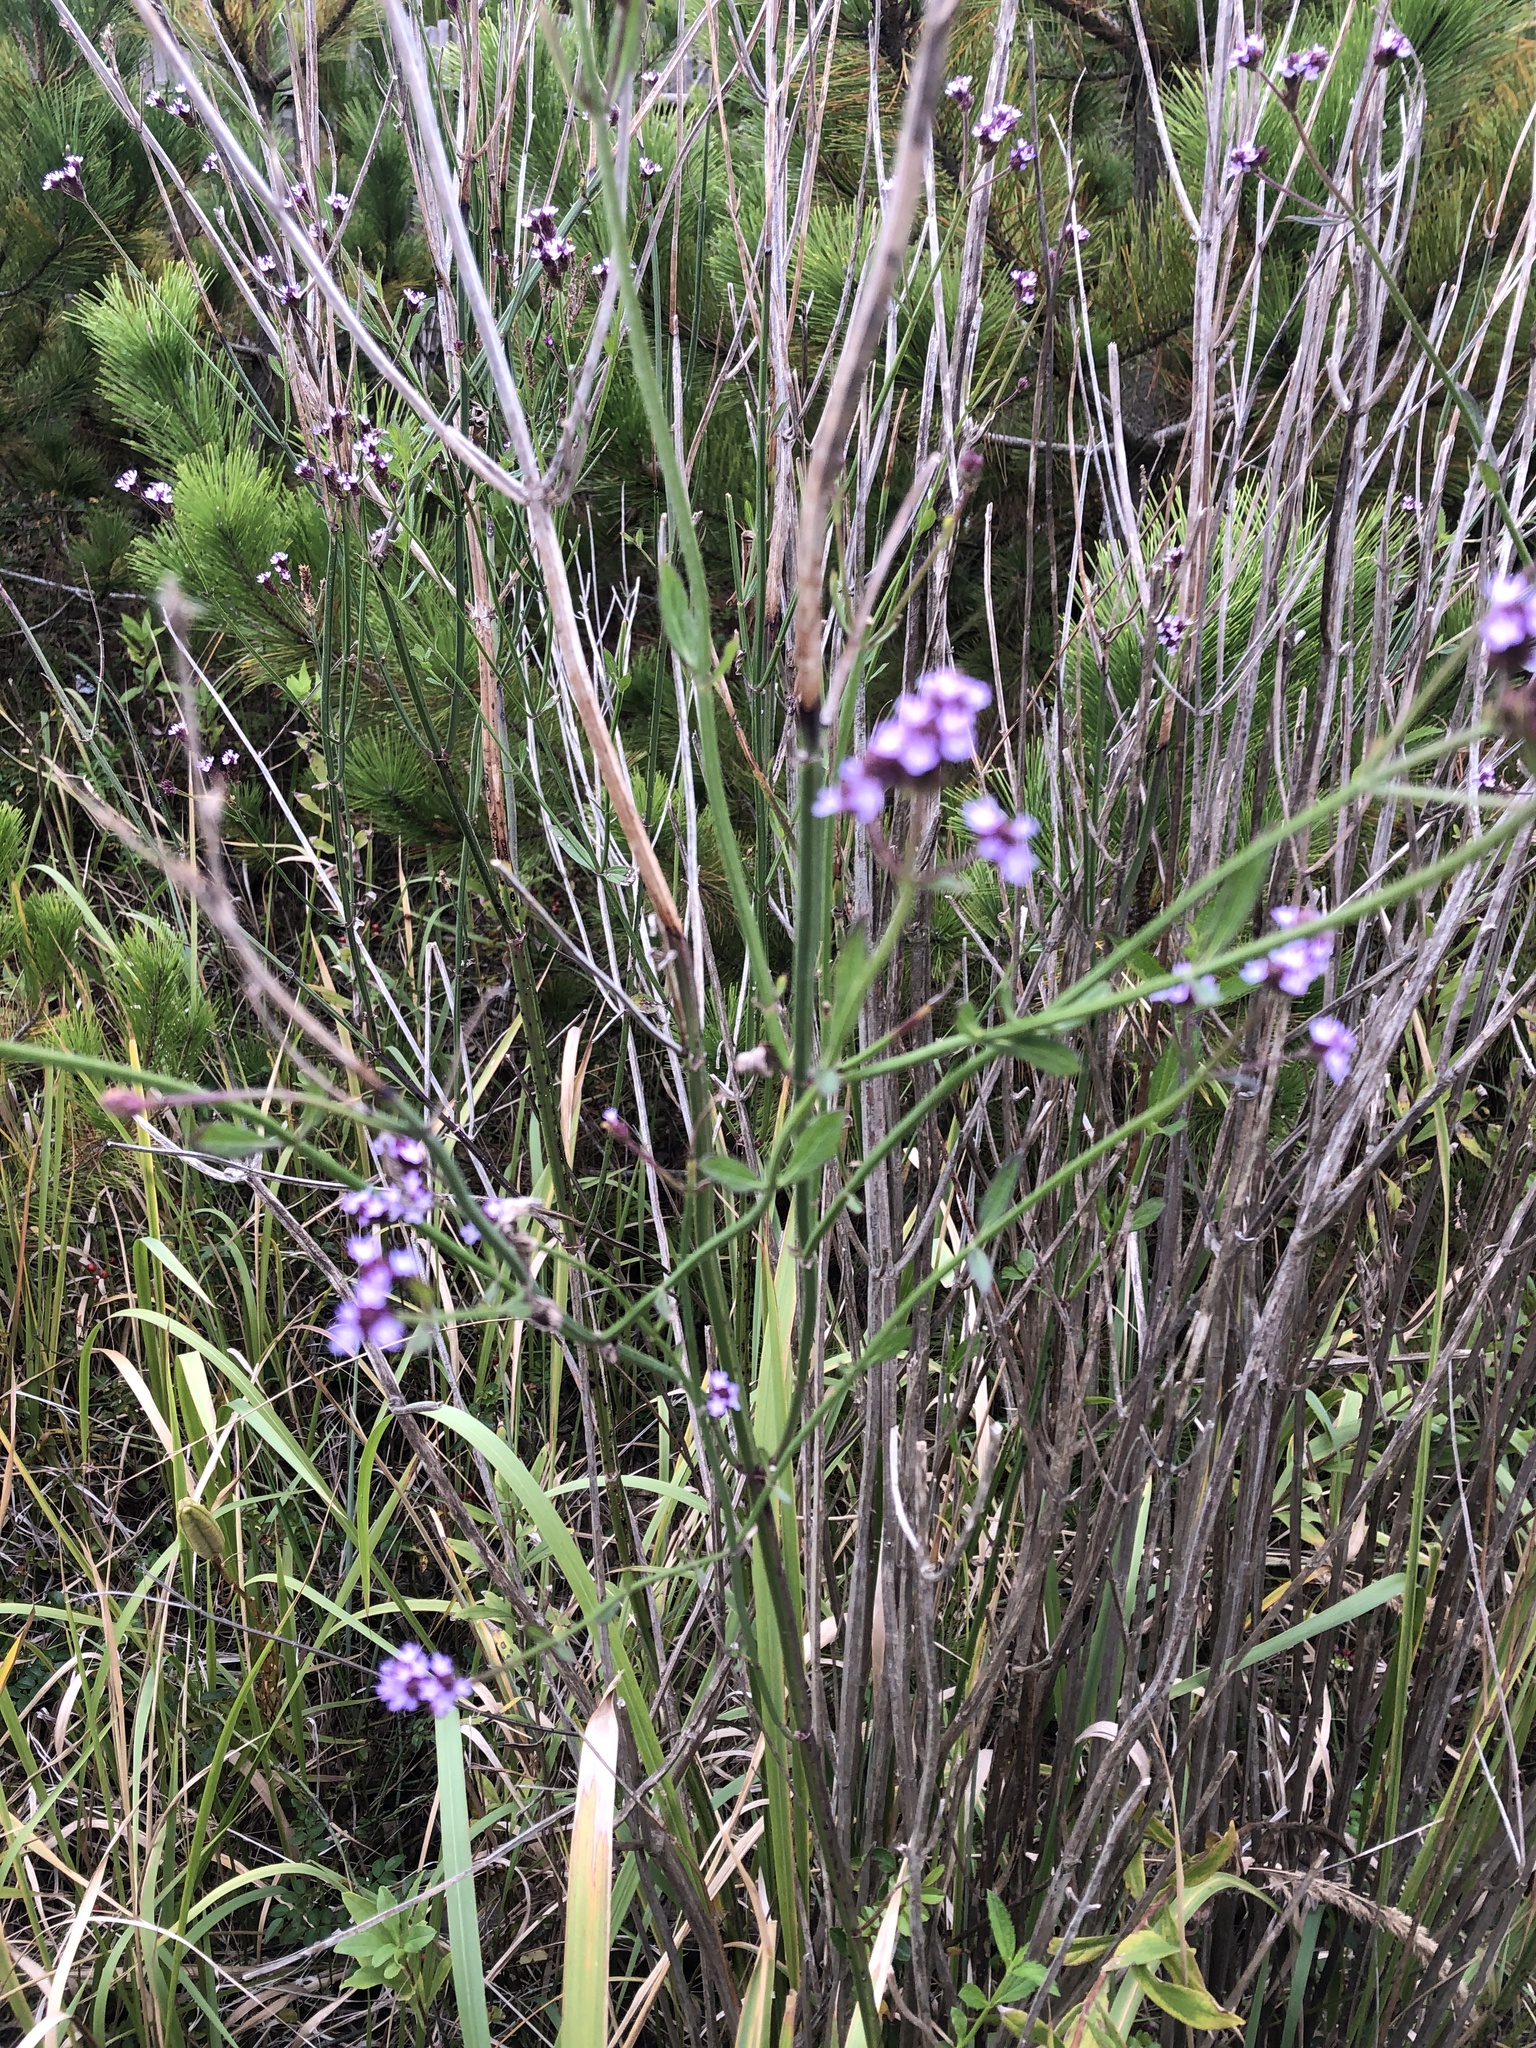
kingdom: Plantae
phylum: Tracheophyta
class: Magnoliopsida
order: Lamiales
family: Verbenaceae
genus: Verbena
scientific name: Verbena brasiliensis
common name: Brazilian vervain
